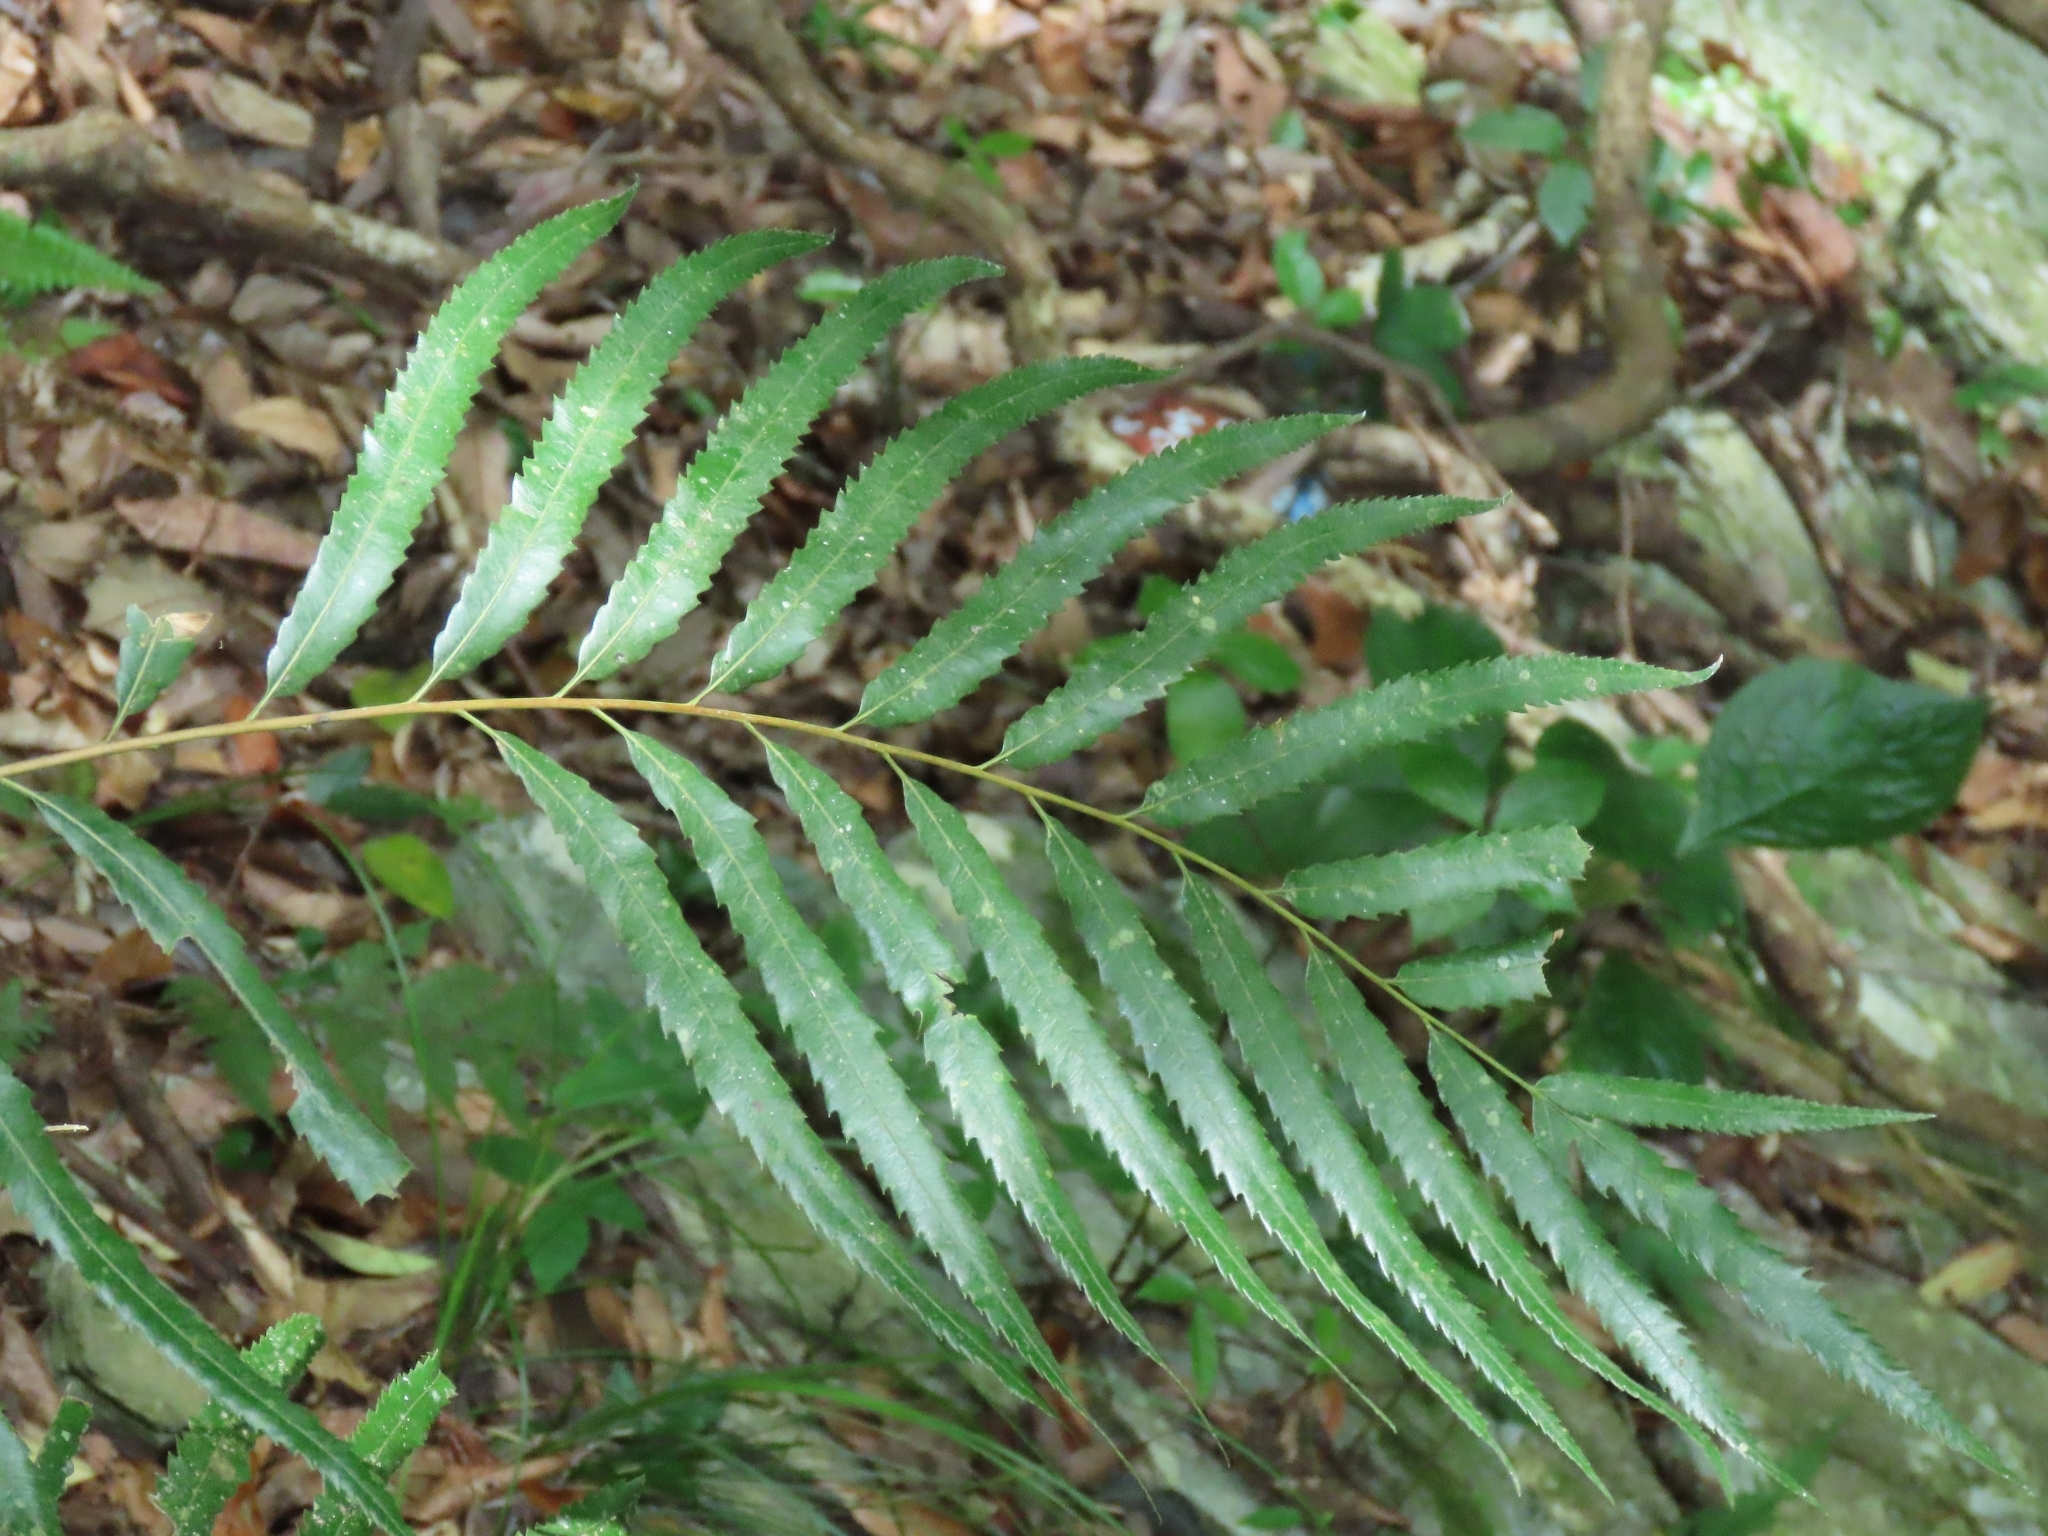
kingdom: Plantae
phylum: Tracheophyta
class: Polypodiopsida
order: Osmundales
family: Osmundaceae
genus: Plenasium
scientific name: Plenasium banksiifolium
